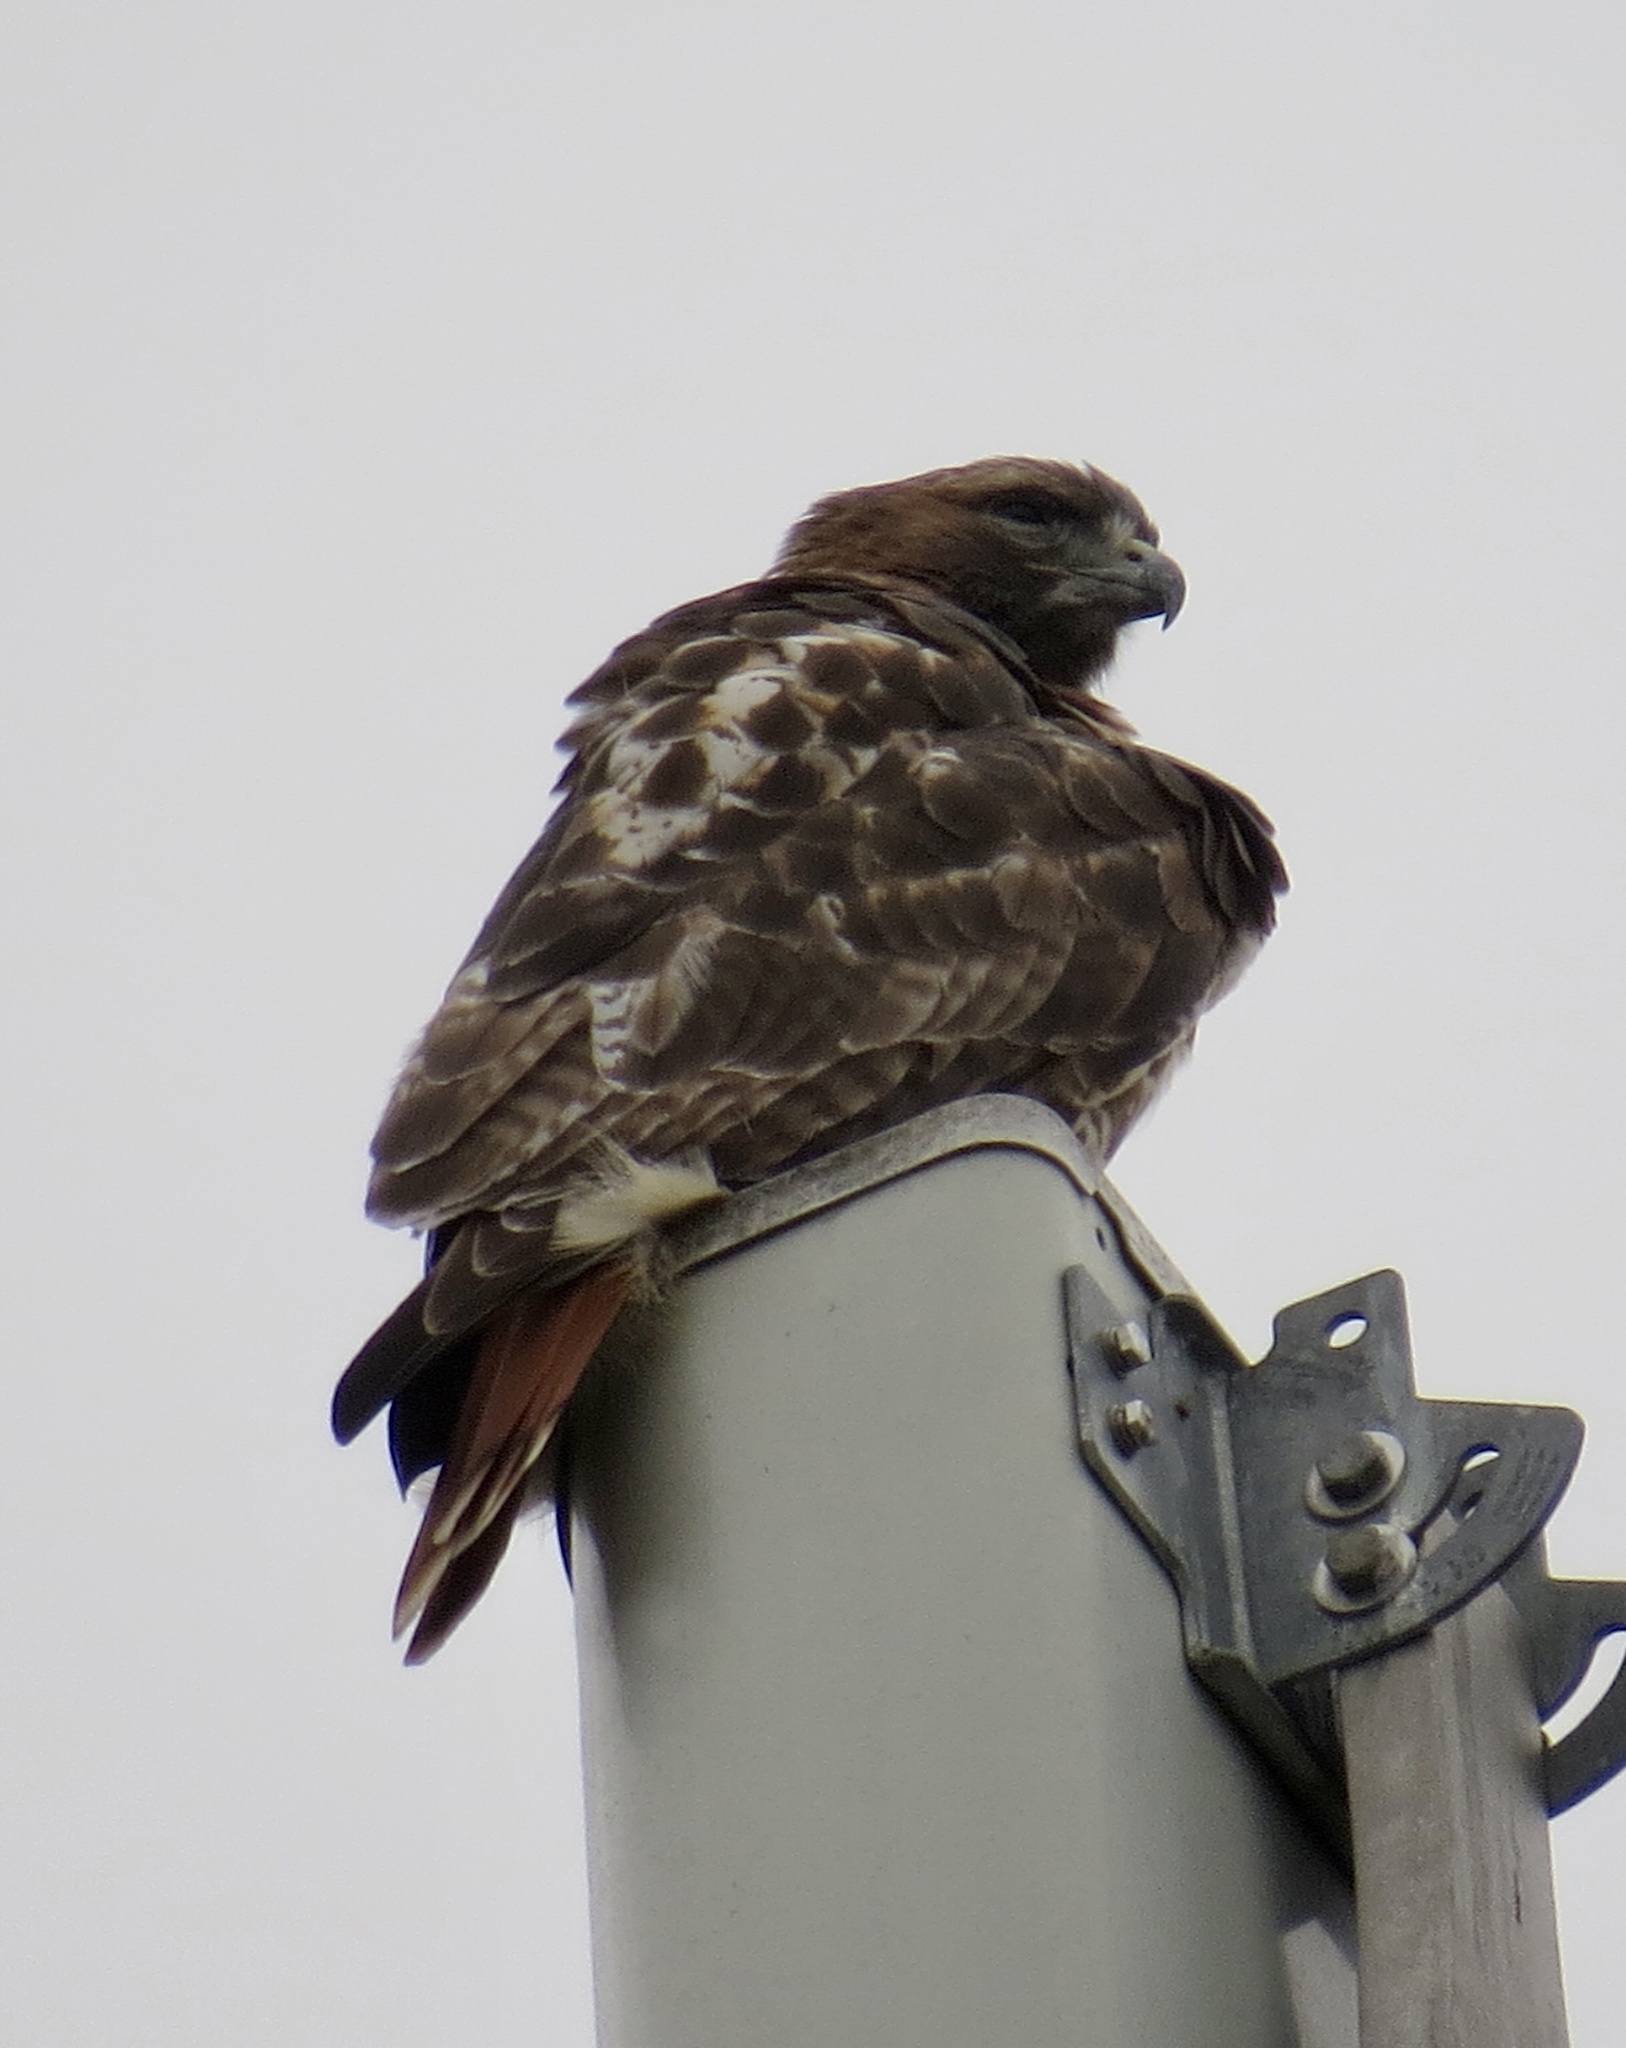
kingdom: Animalia
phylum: Chordata
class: Aves
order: Accipitriformes
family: Accipitridae
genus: Buteo
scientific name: Buteo jamaicensis
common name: Red-tailed hawk
